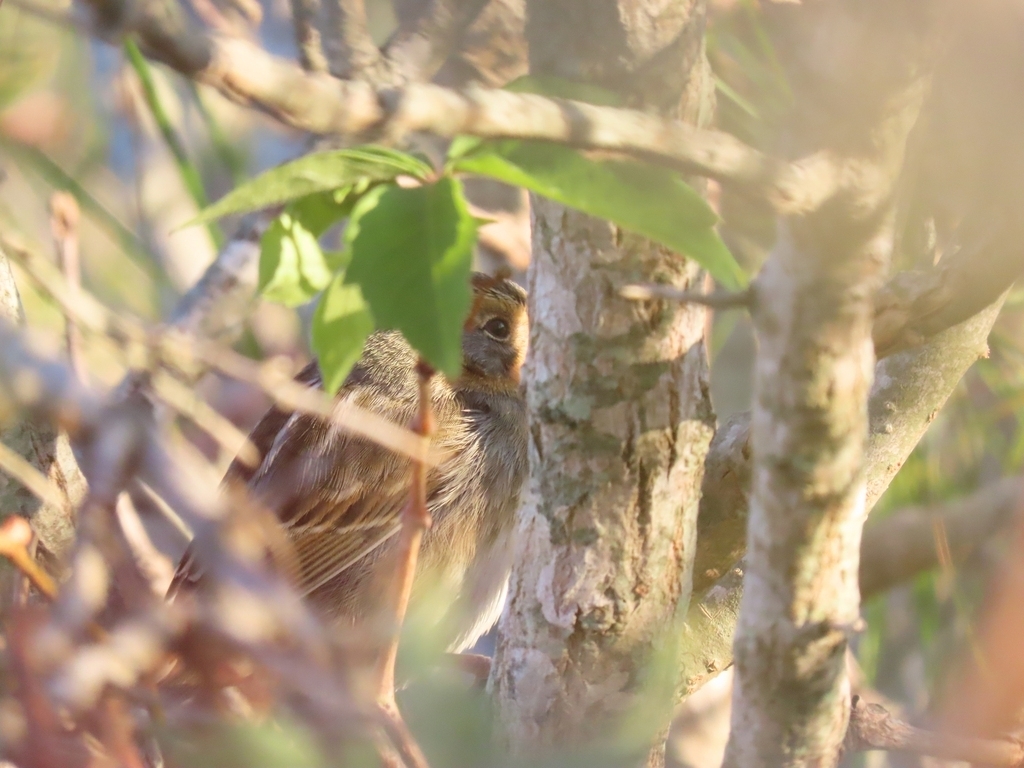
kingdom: Animalia
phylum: Chordata
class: Aves
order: Passeriformes
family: Passerellidae
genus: Ammospiza
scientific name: Ammospiza nelsoni
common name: Nelson's sparrow
